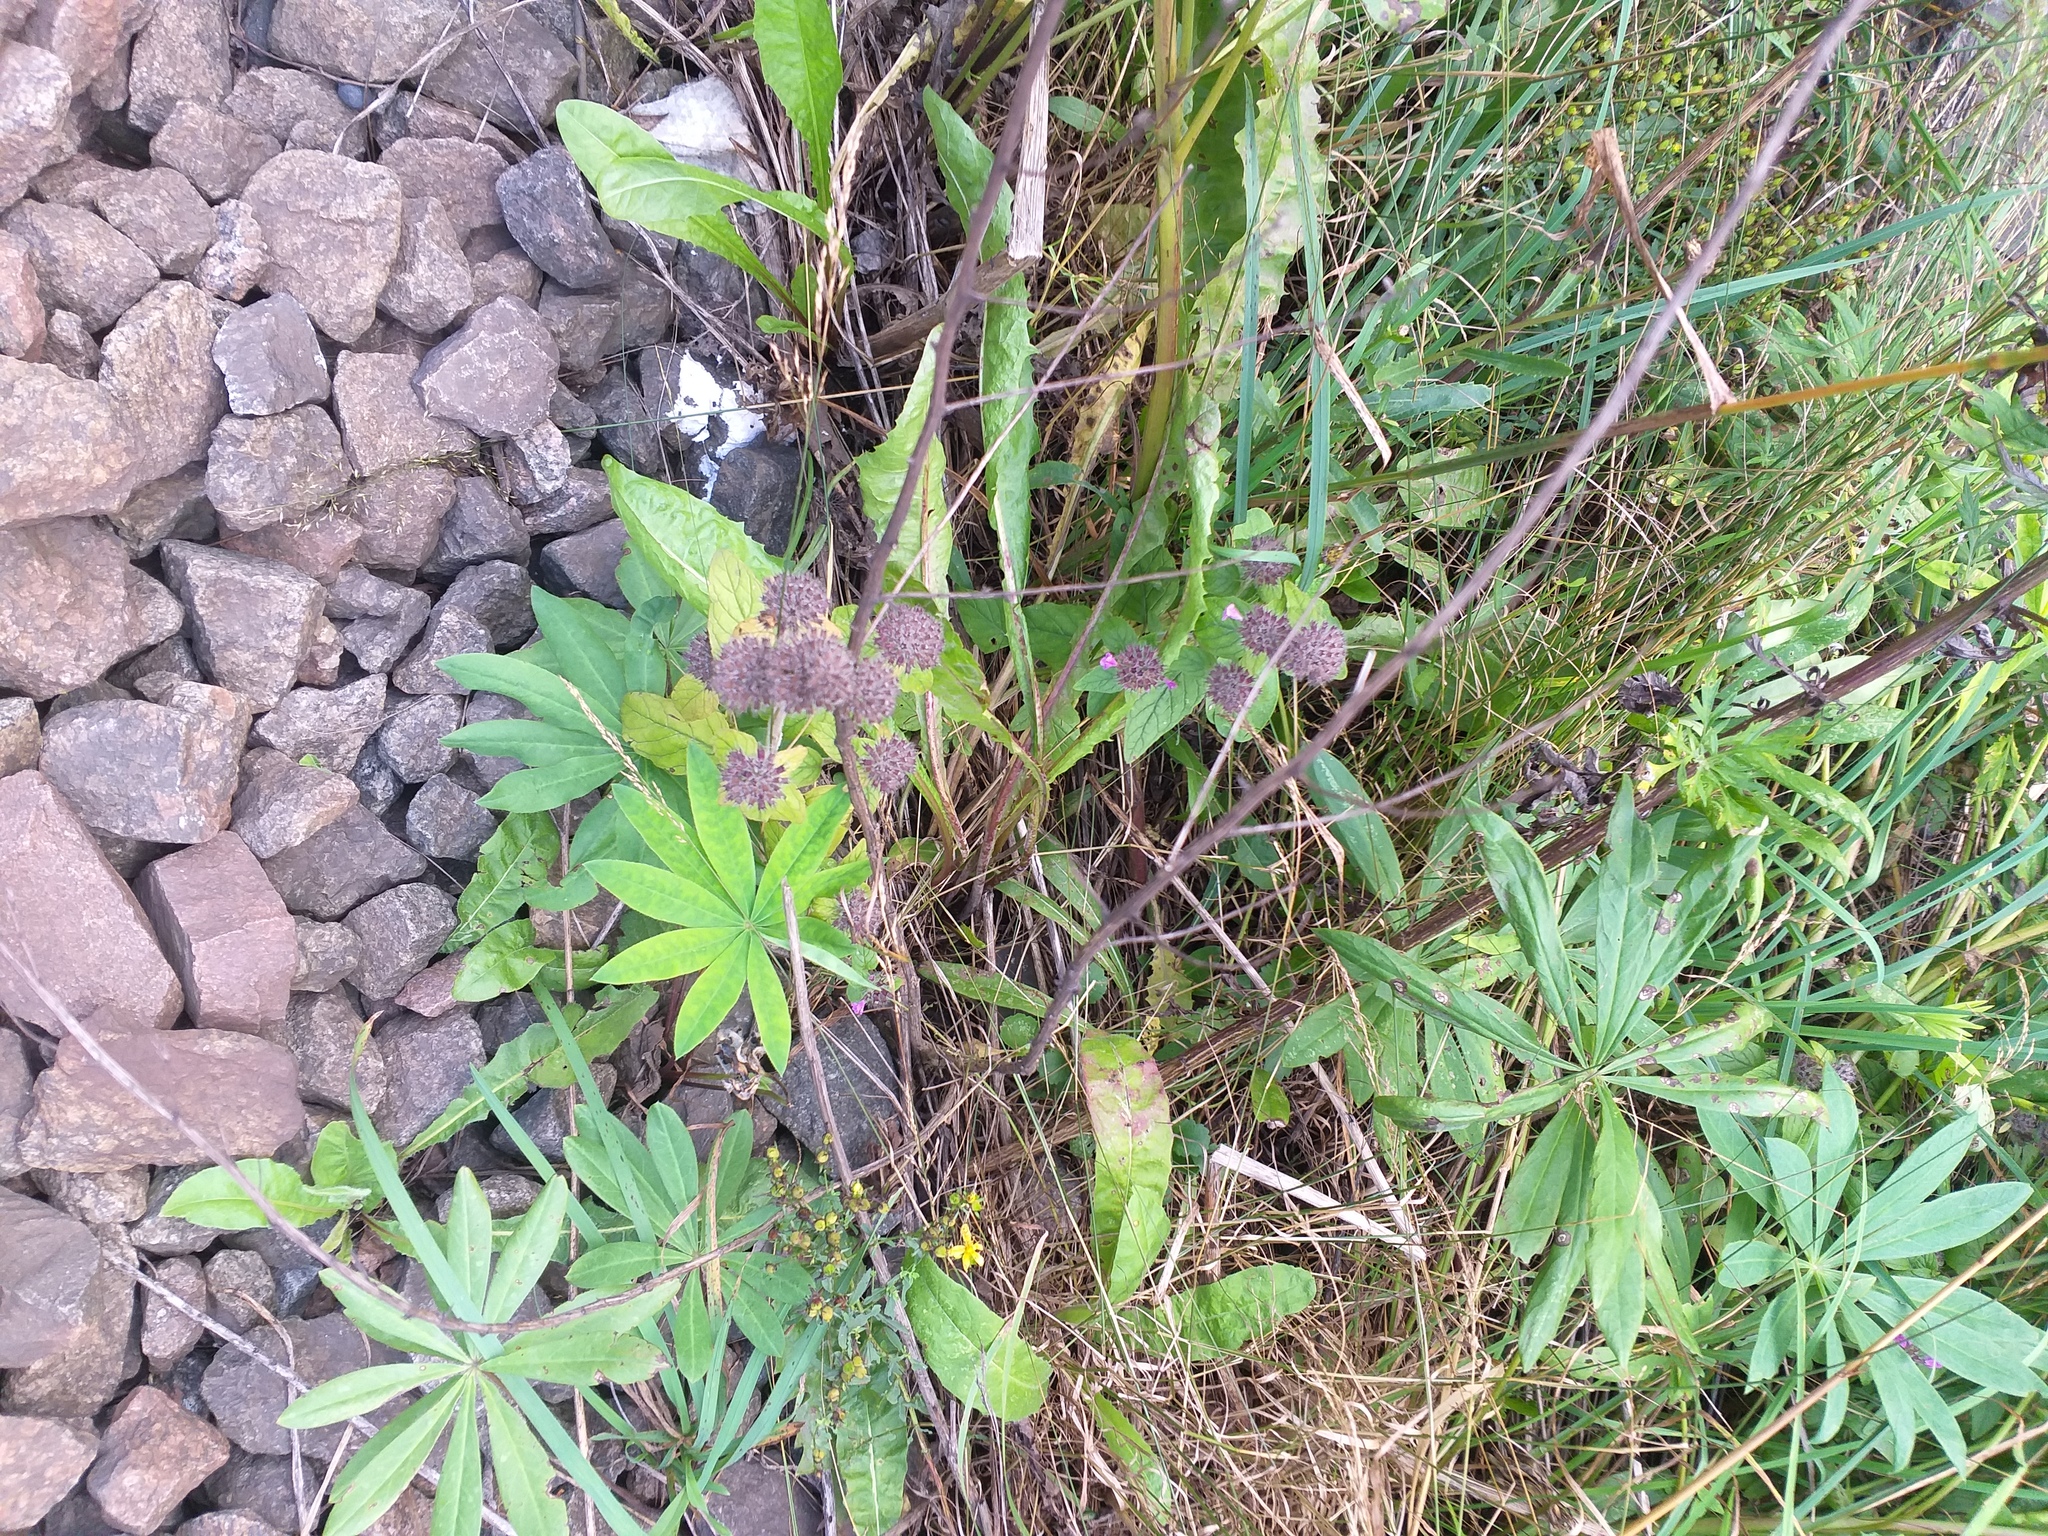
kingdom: Plantae
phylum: Tracheophyta
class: Magnoliopsida
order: Lamiales
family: Lamiaceae
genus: Clinopodium
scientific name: Clinopodium vulgare
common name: Wild basil
